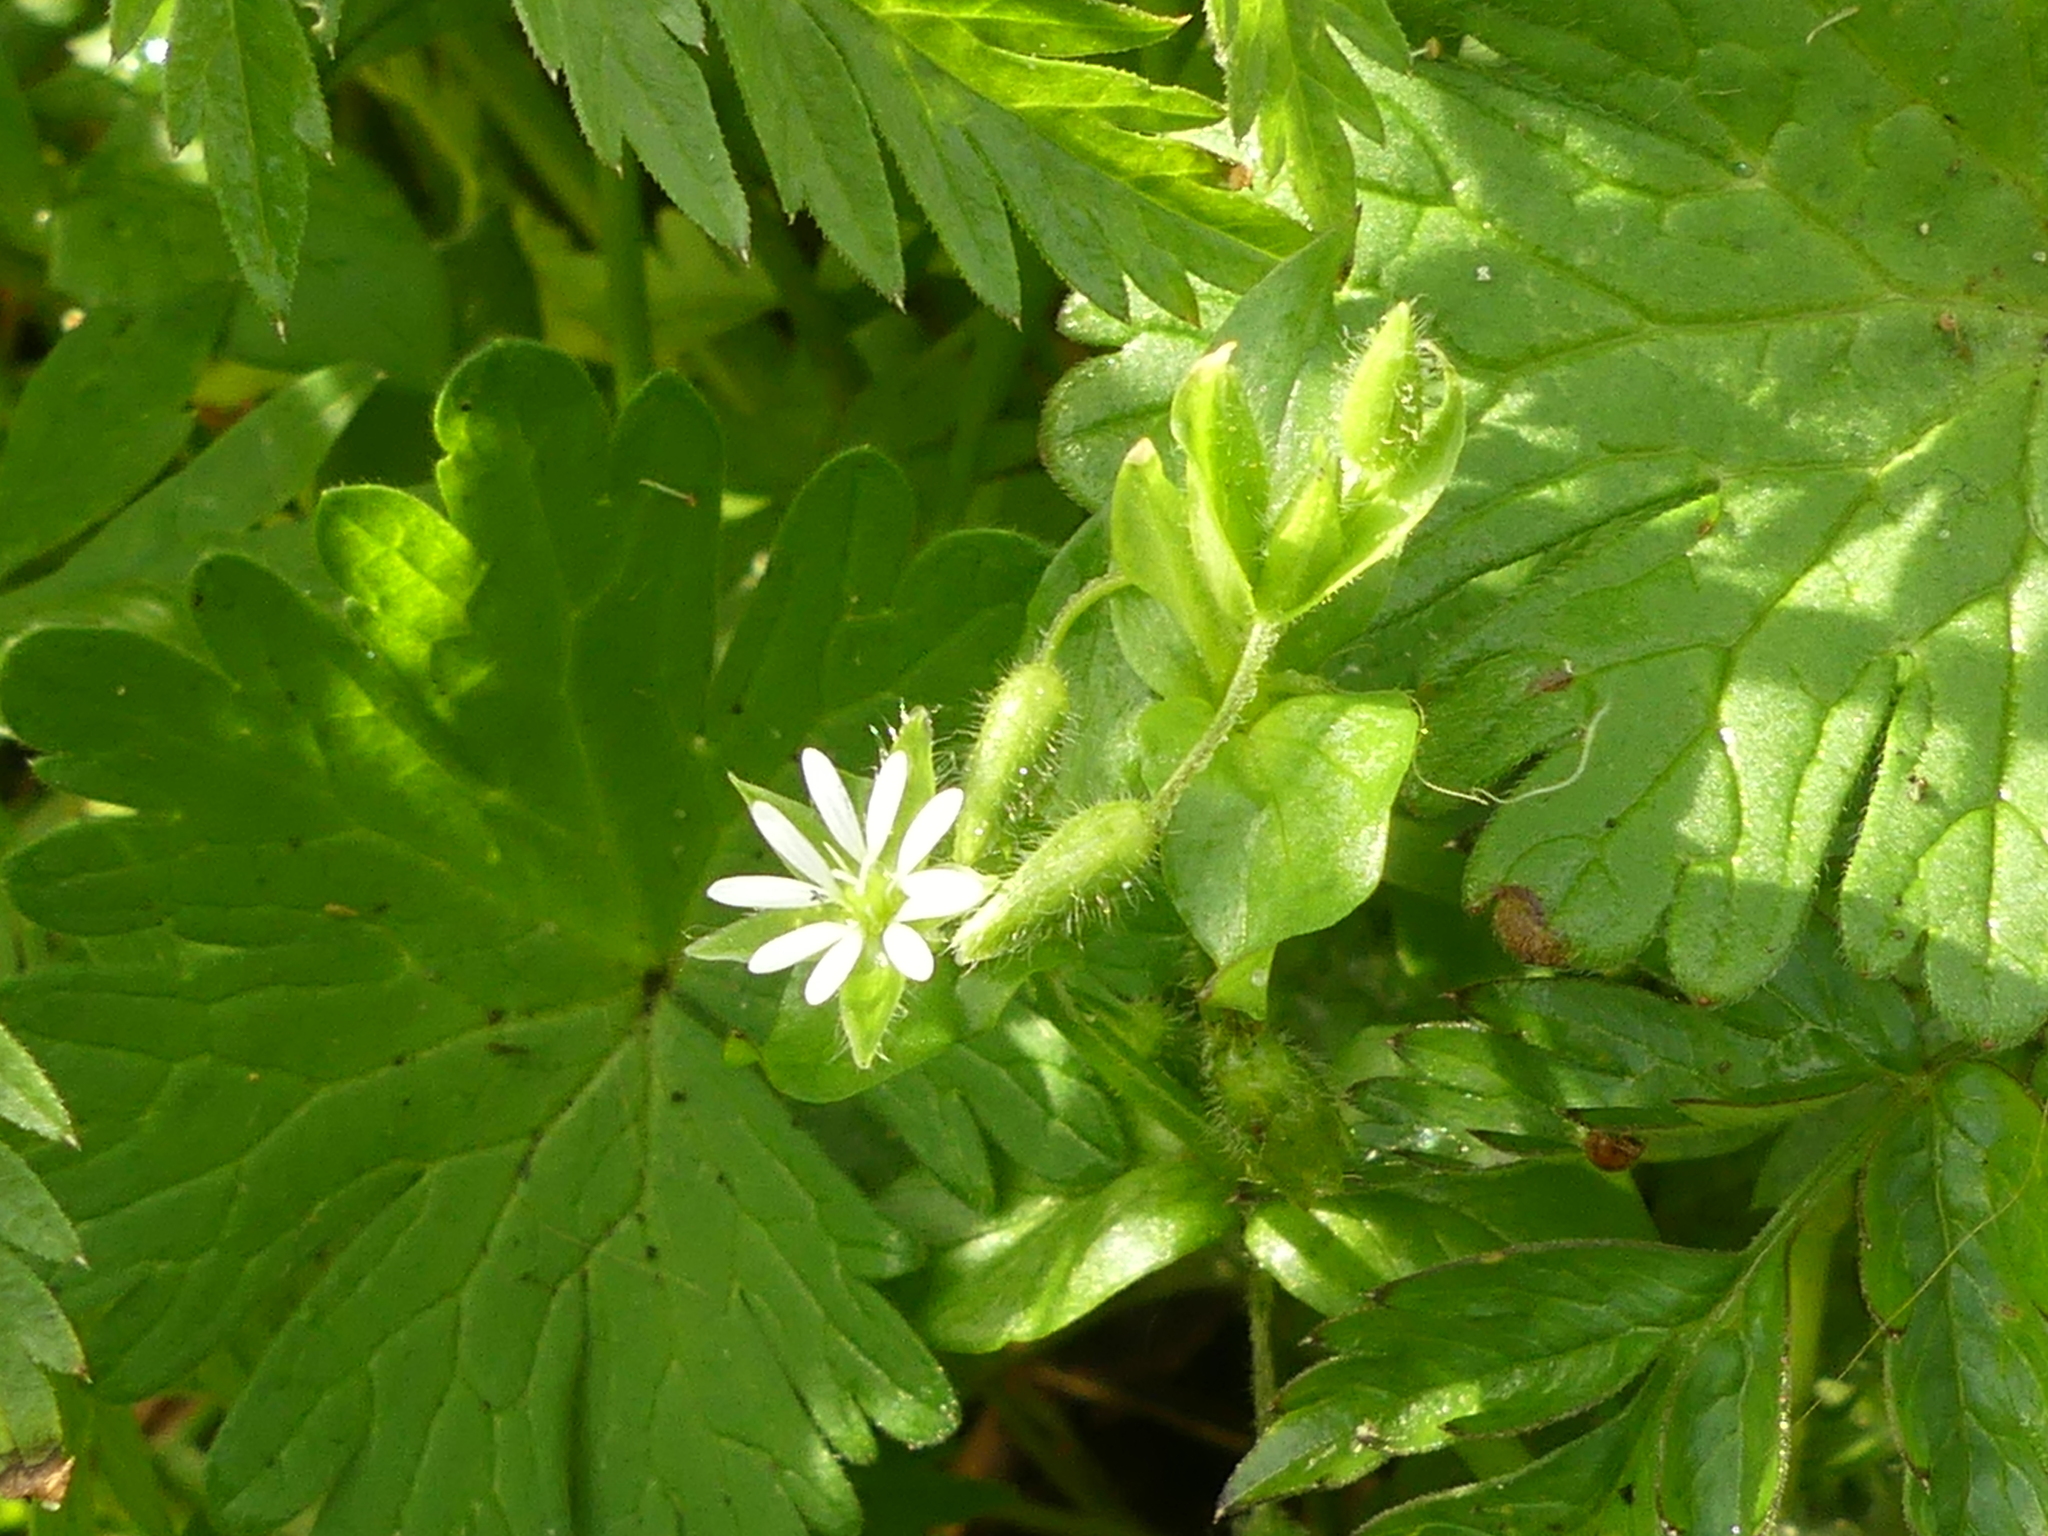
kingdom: Plantae
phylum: Tracheophyta
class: Magnoliopsida
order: Caryophyllales
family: Caryophyllaceae
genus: Stellaria
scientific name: Stellaria media
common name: Common chickweed
